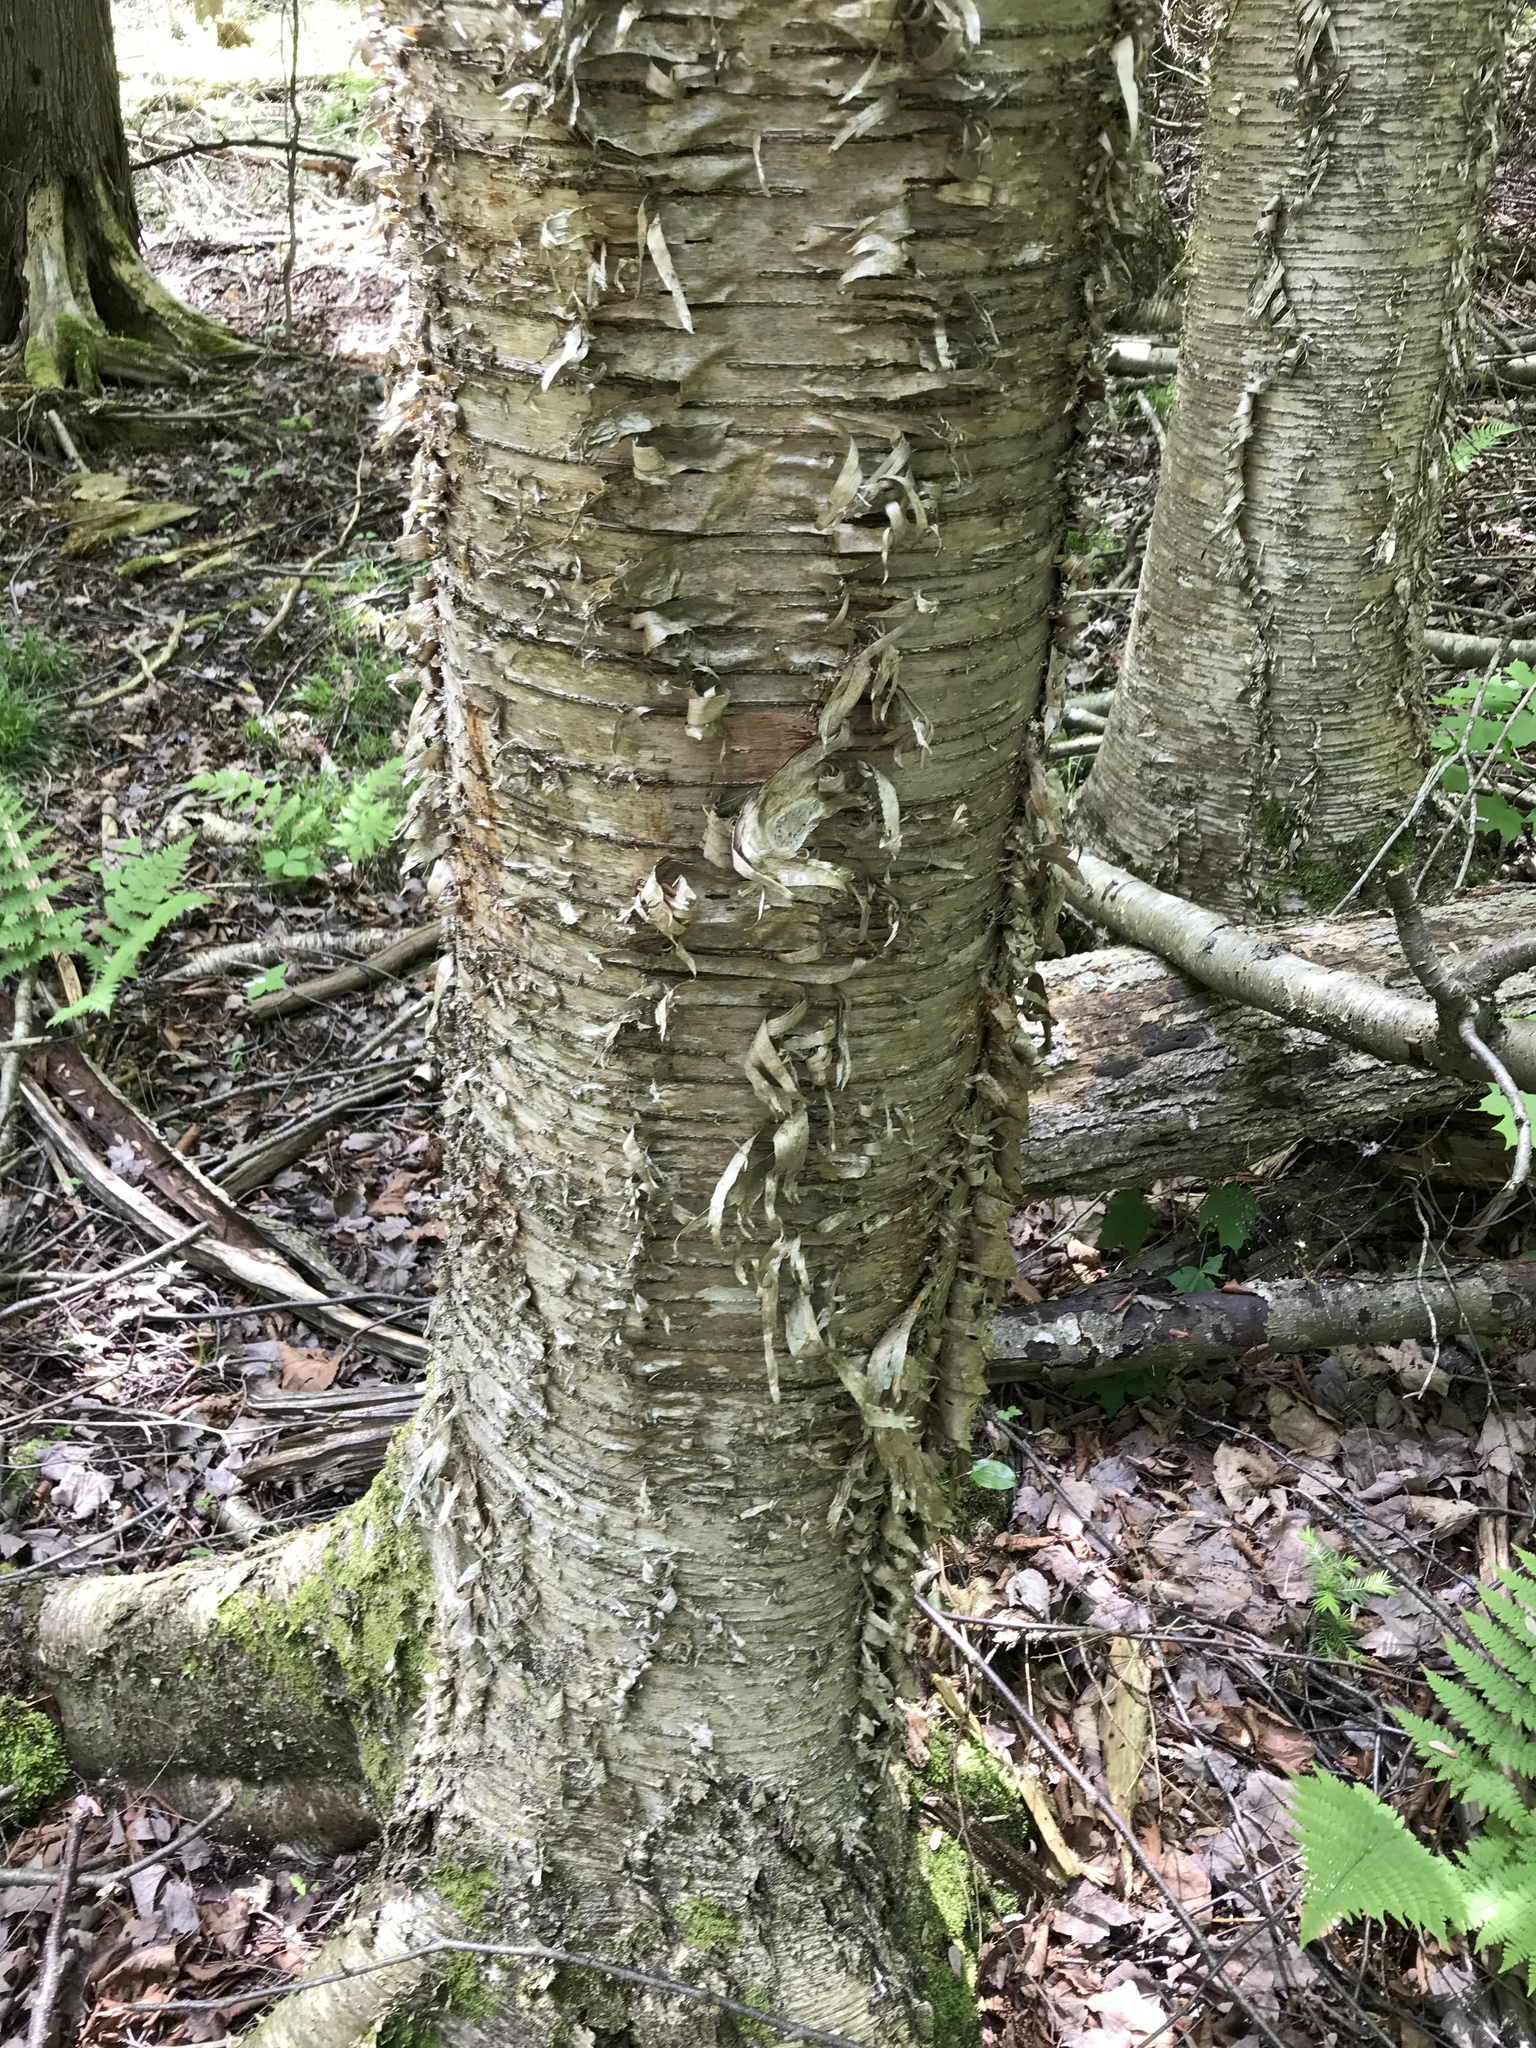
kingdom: Plantae
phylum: Tracheophyta
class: Magnoliopsida
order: Fagales
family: Betulaceae
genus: Betula
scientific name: Betula alleghaniensis
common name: Yellow birch
